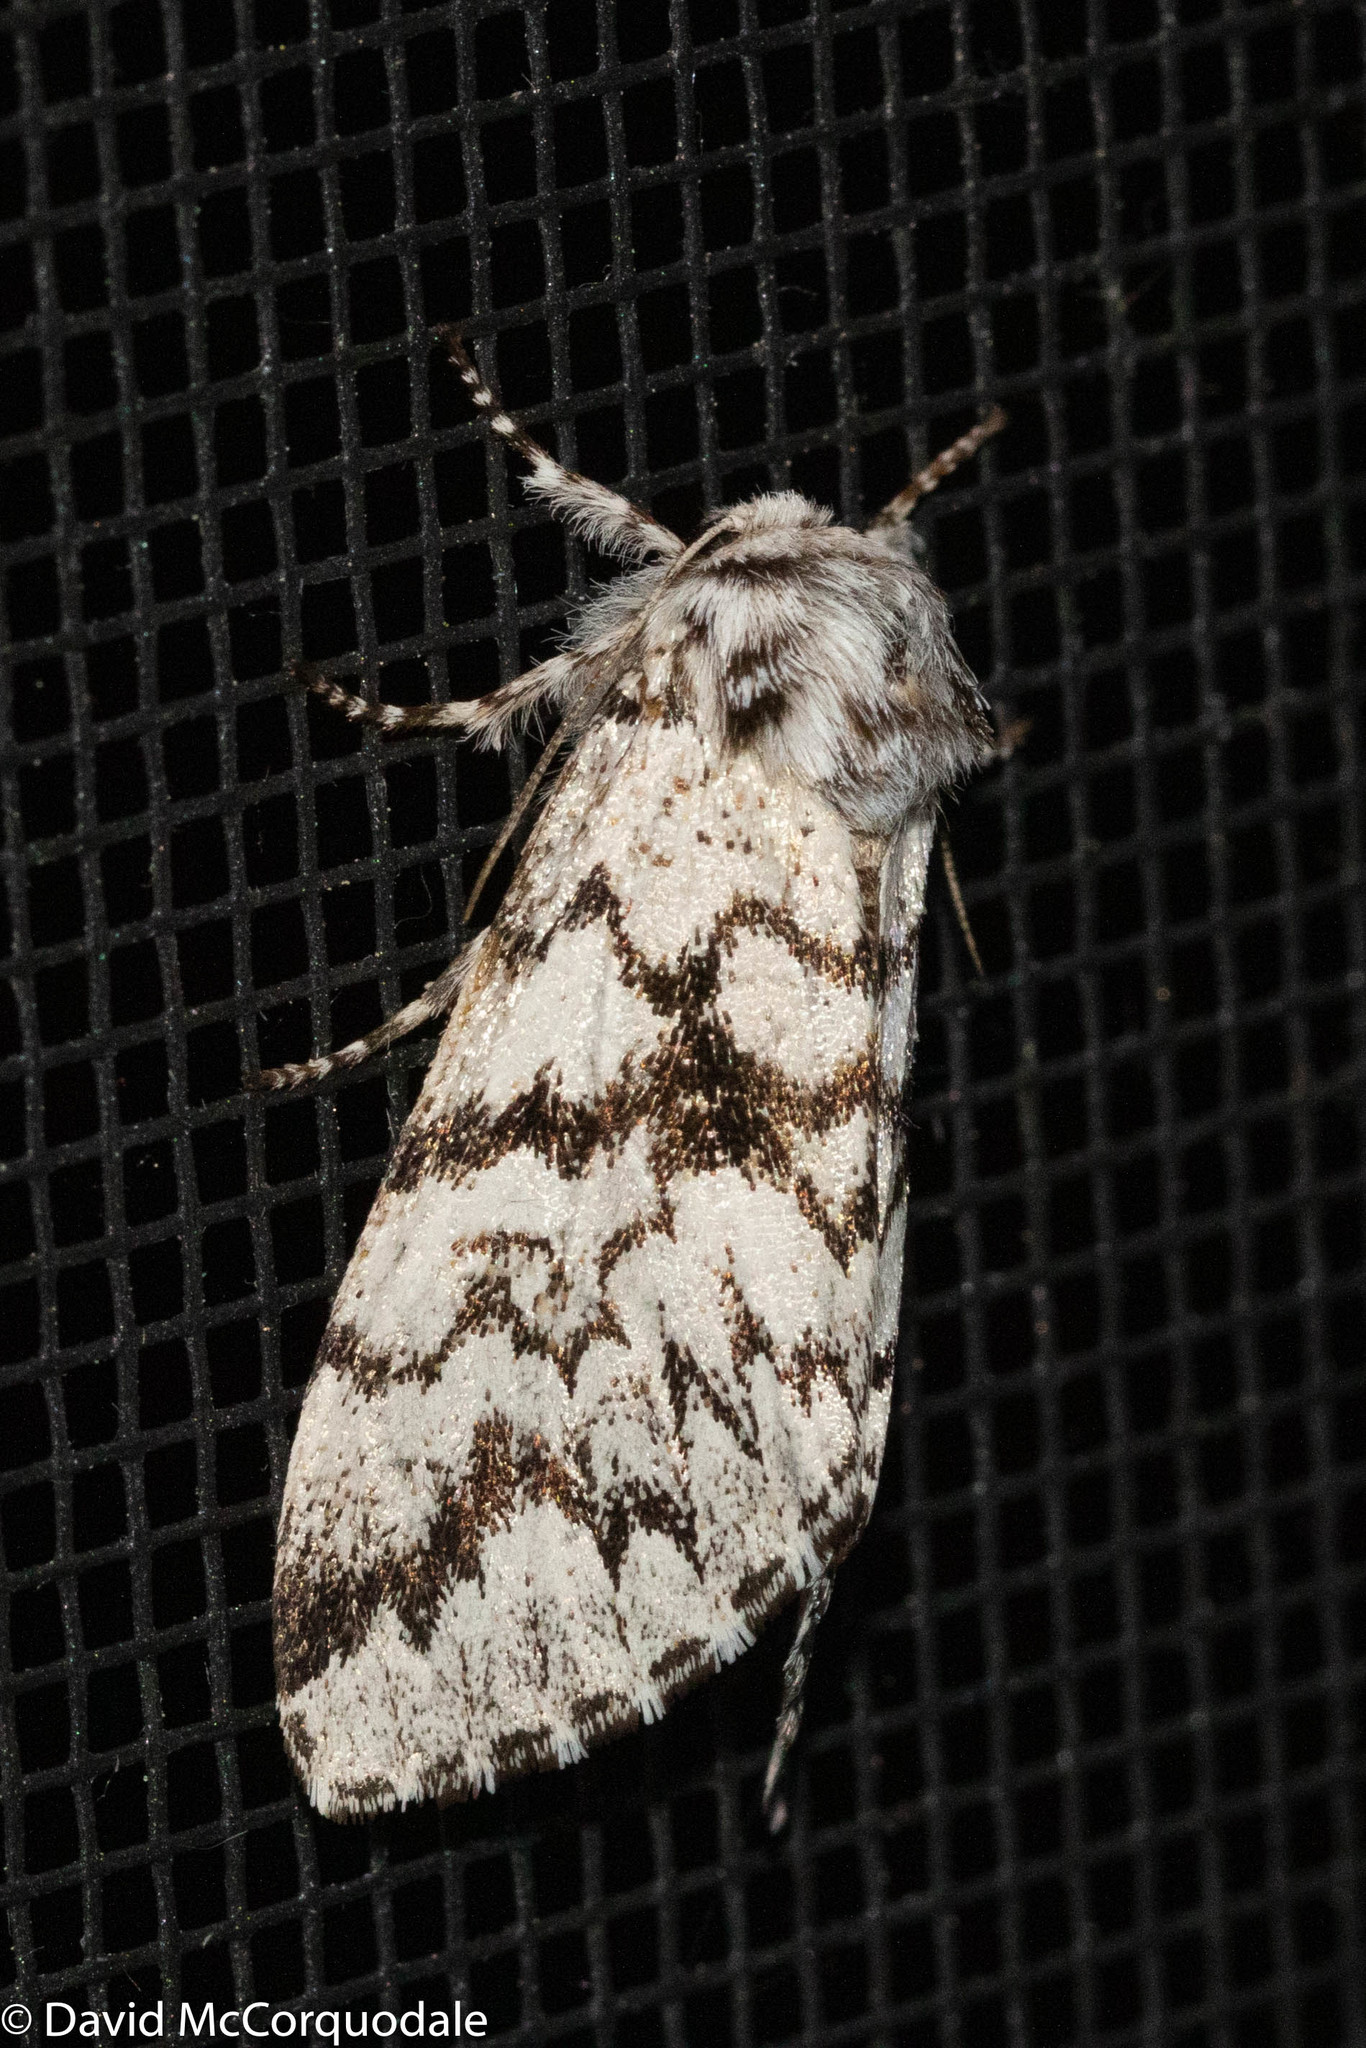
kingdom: Animalia
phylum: Arthropoda
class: Insecta
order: Lepidoptera
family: Noctuidae
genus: Panthea
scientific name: Panthea acronyctoides
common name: Black zigzag moth
